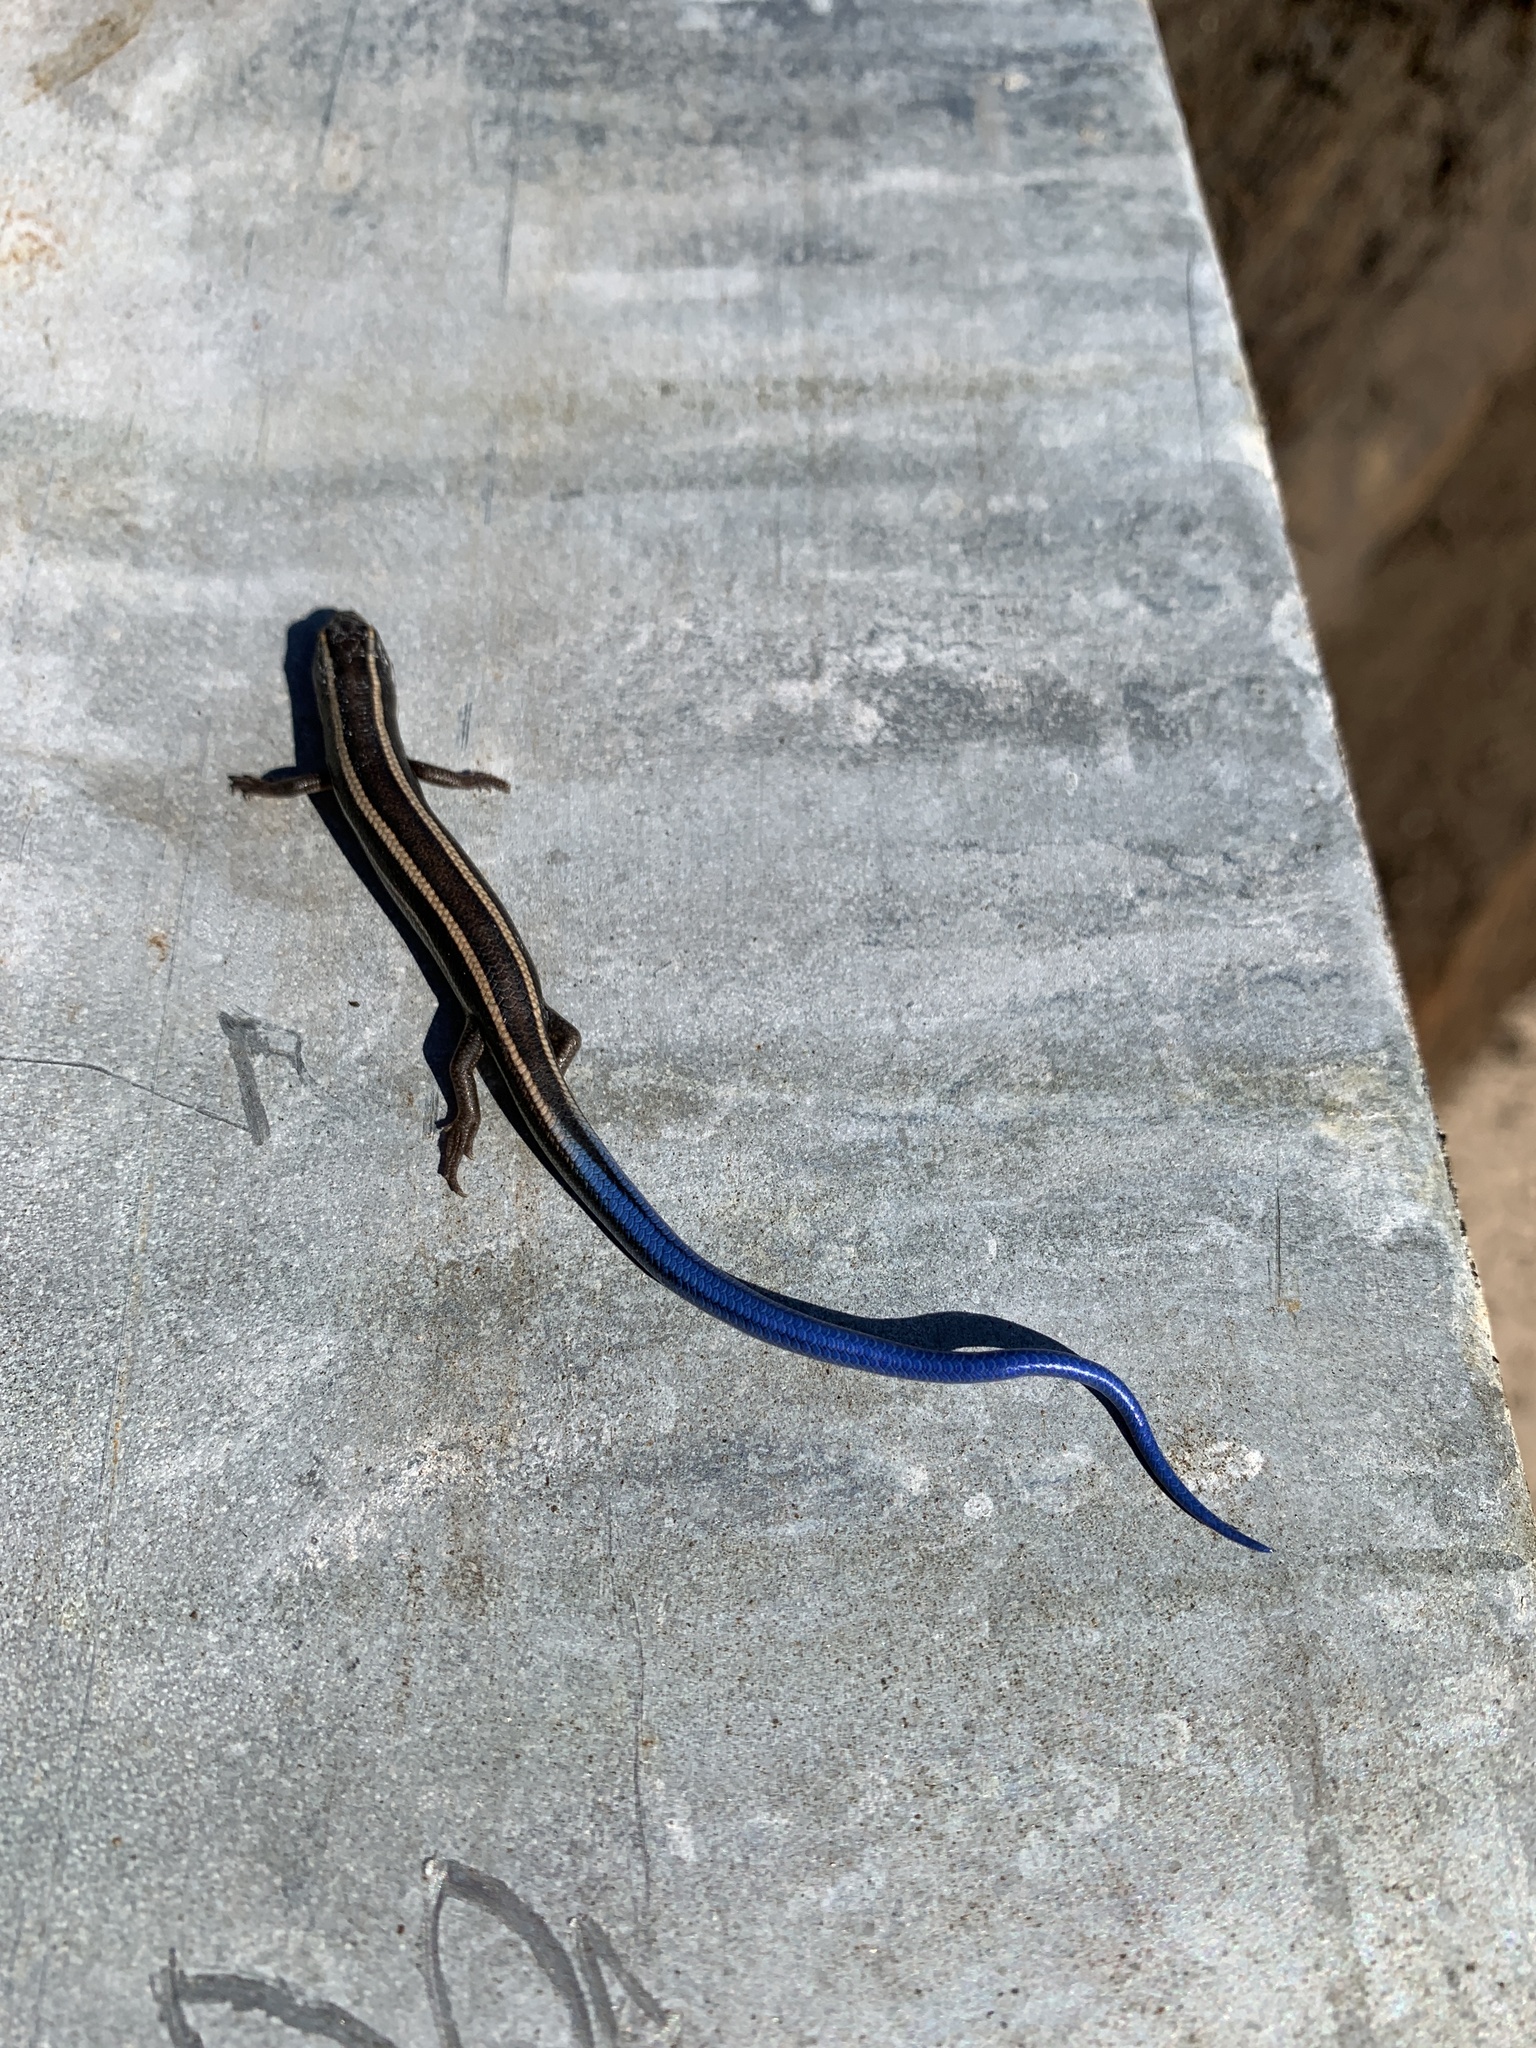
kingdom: Animalia
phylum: Chordata
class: Squamata
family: Scincidae
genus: Plestiodon
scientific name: Plestiodon skiltonianus
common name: Coronado island skink [interparietalis]
